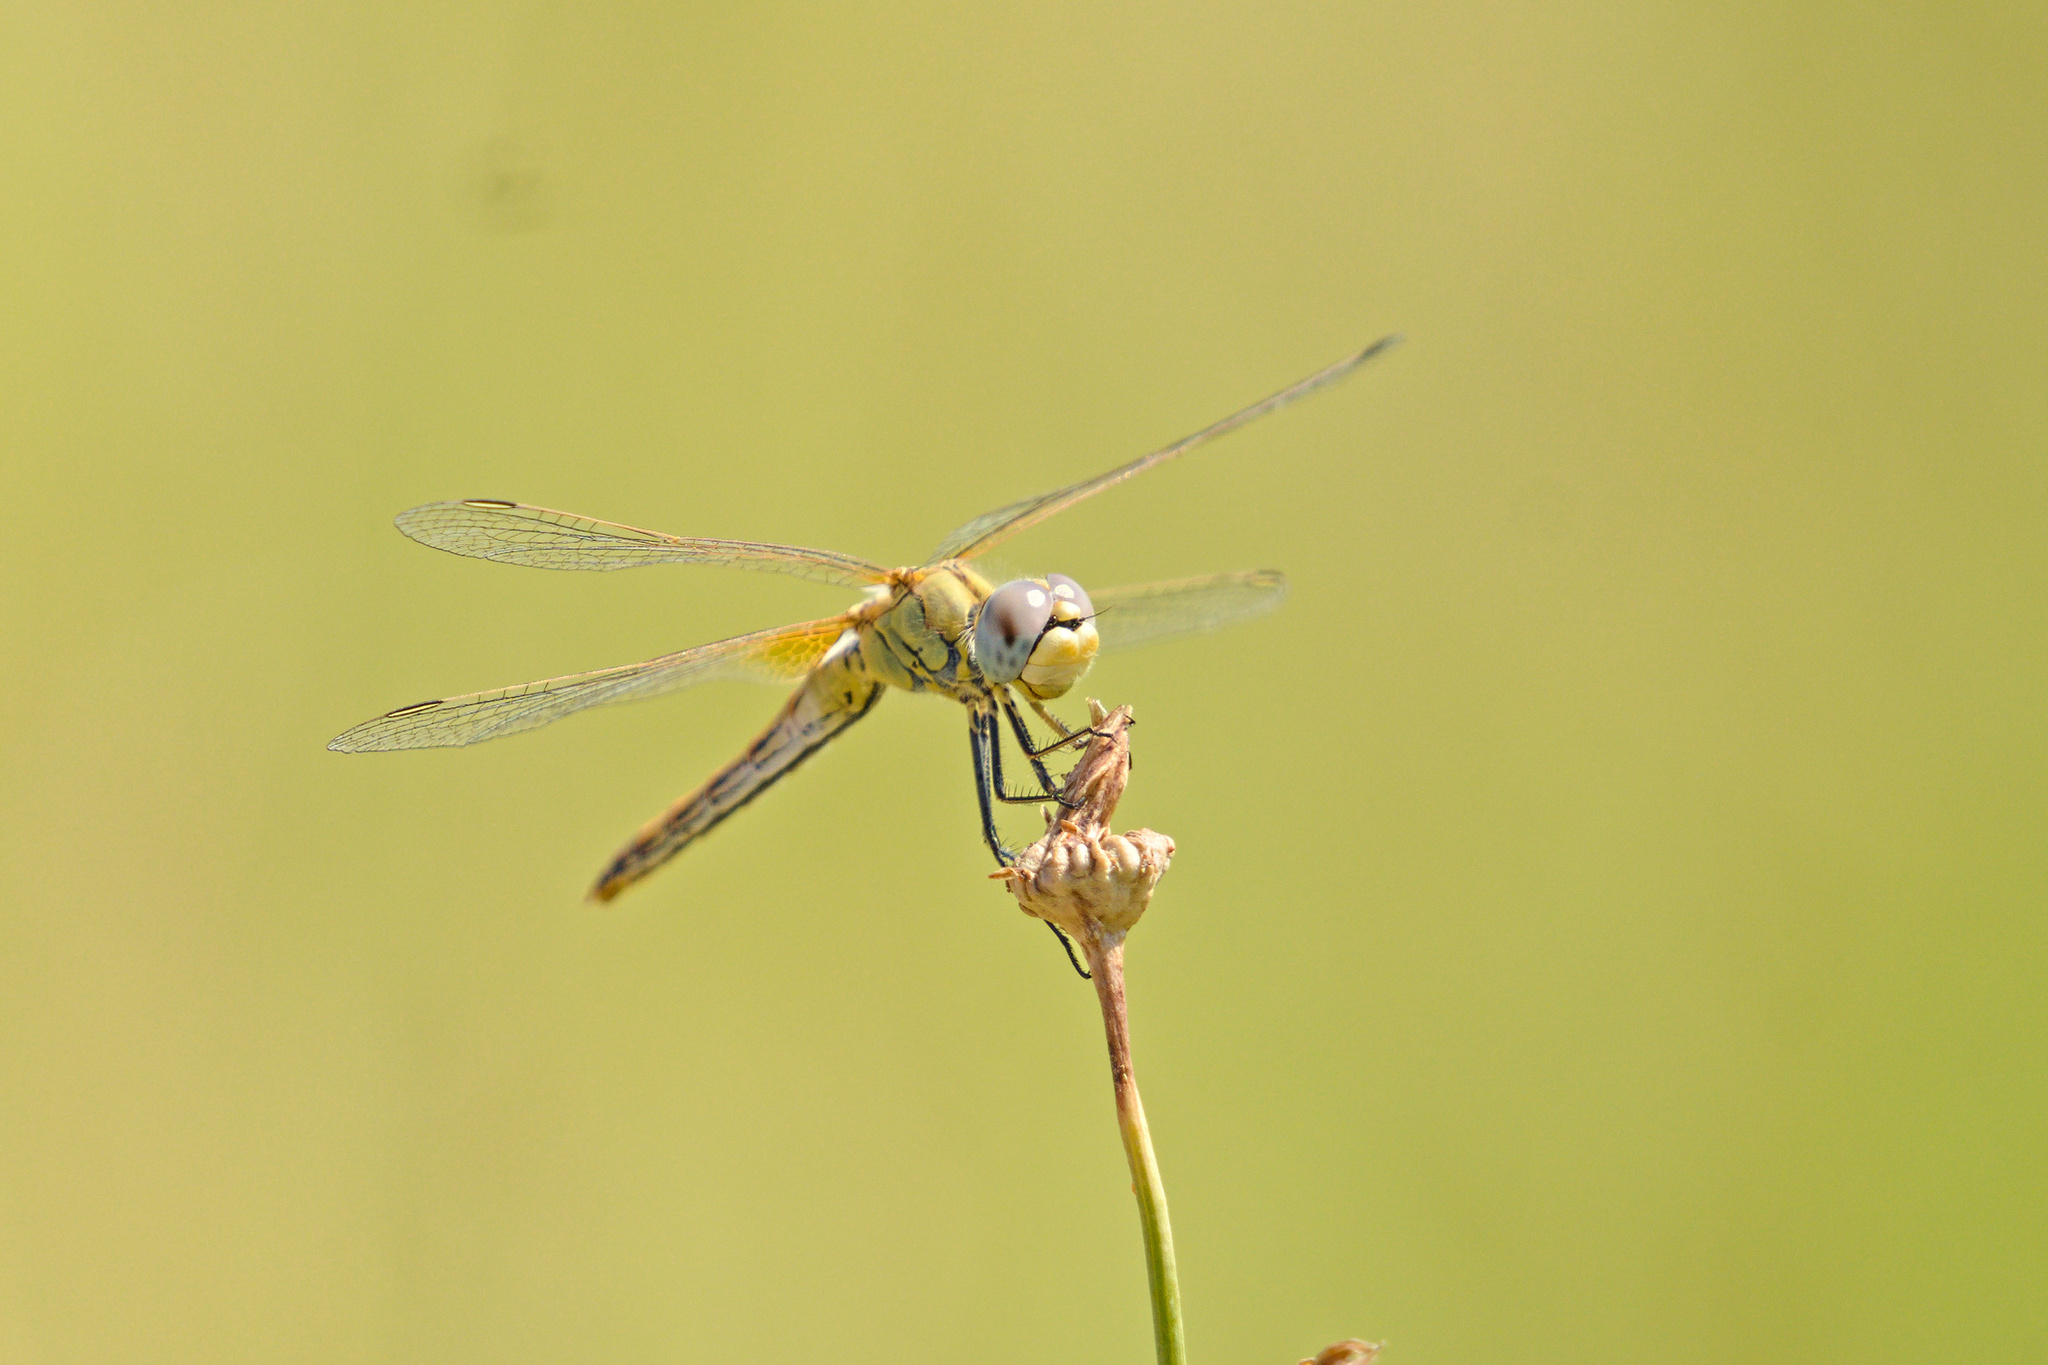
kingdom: Animalia
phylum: Arthropoda
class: Insecta
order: Odonata
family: Libellulidae
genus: Sympetrum
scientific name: Sympetrum fonscolombii
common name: Red-veined darter
